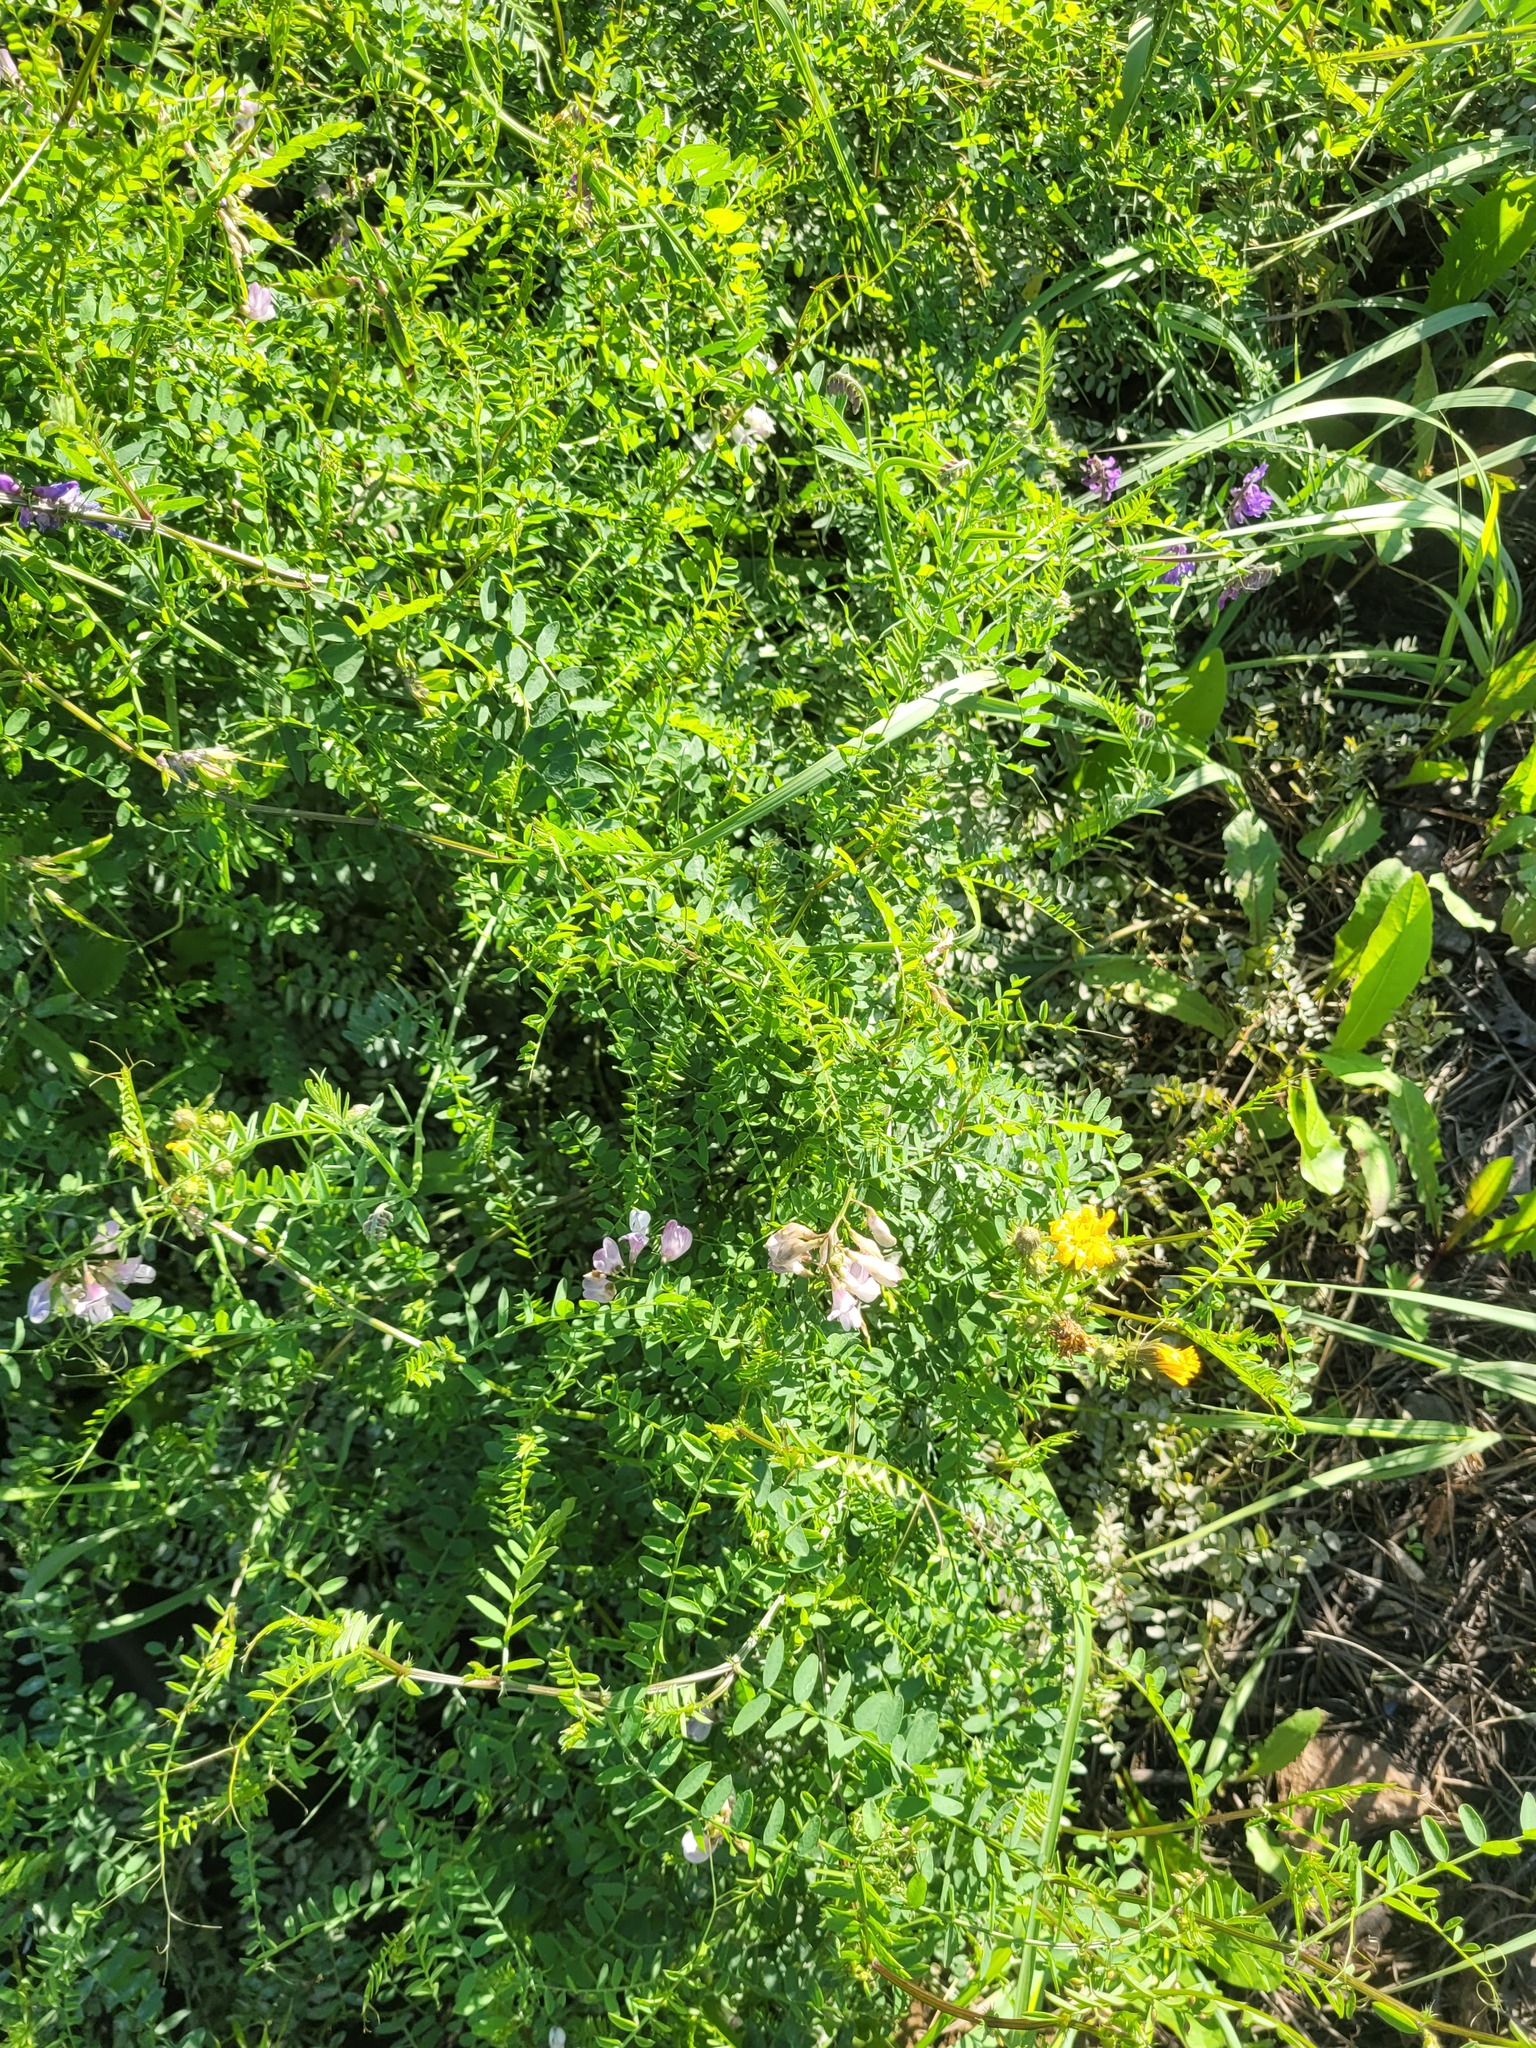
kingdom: Plantae
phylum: Tracheophyta
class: Magnoliopsida
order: Fabales
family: Fabaceae
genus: Vicia
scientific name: Vicia sylvatica
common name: Wood vetch
